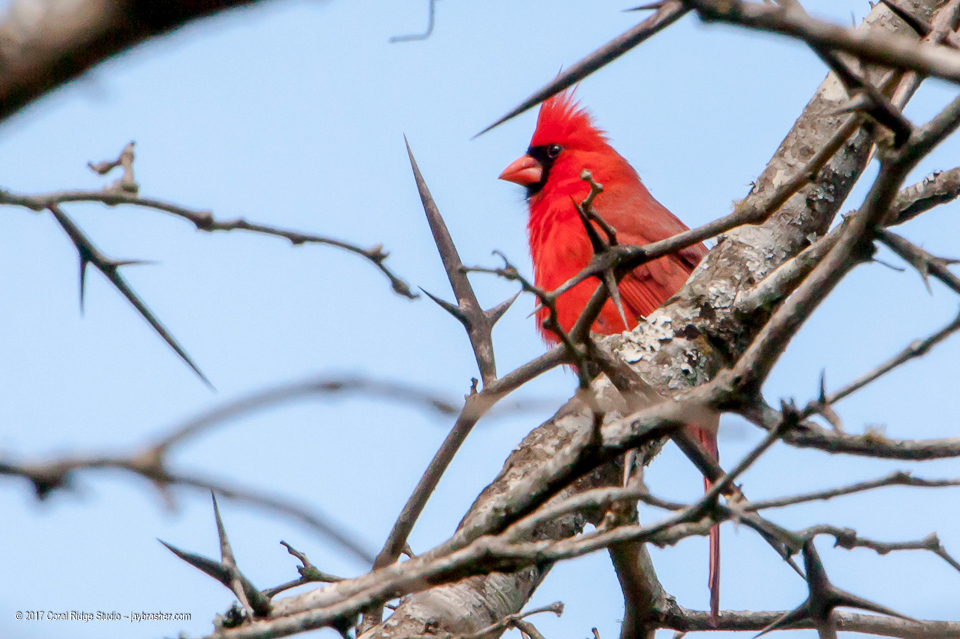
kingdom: Animalia
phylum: Chordata
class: Aves
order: Passeriformes
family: Cardinalidae
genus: Cardinalis
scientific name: Cardinalis cardinalis
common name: Northern cardinal
